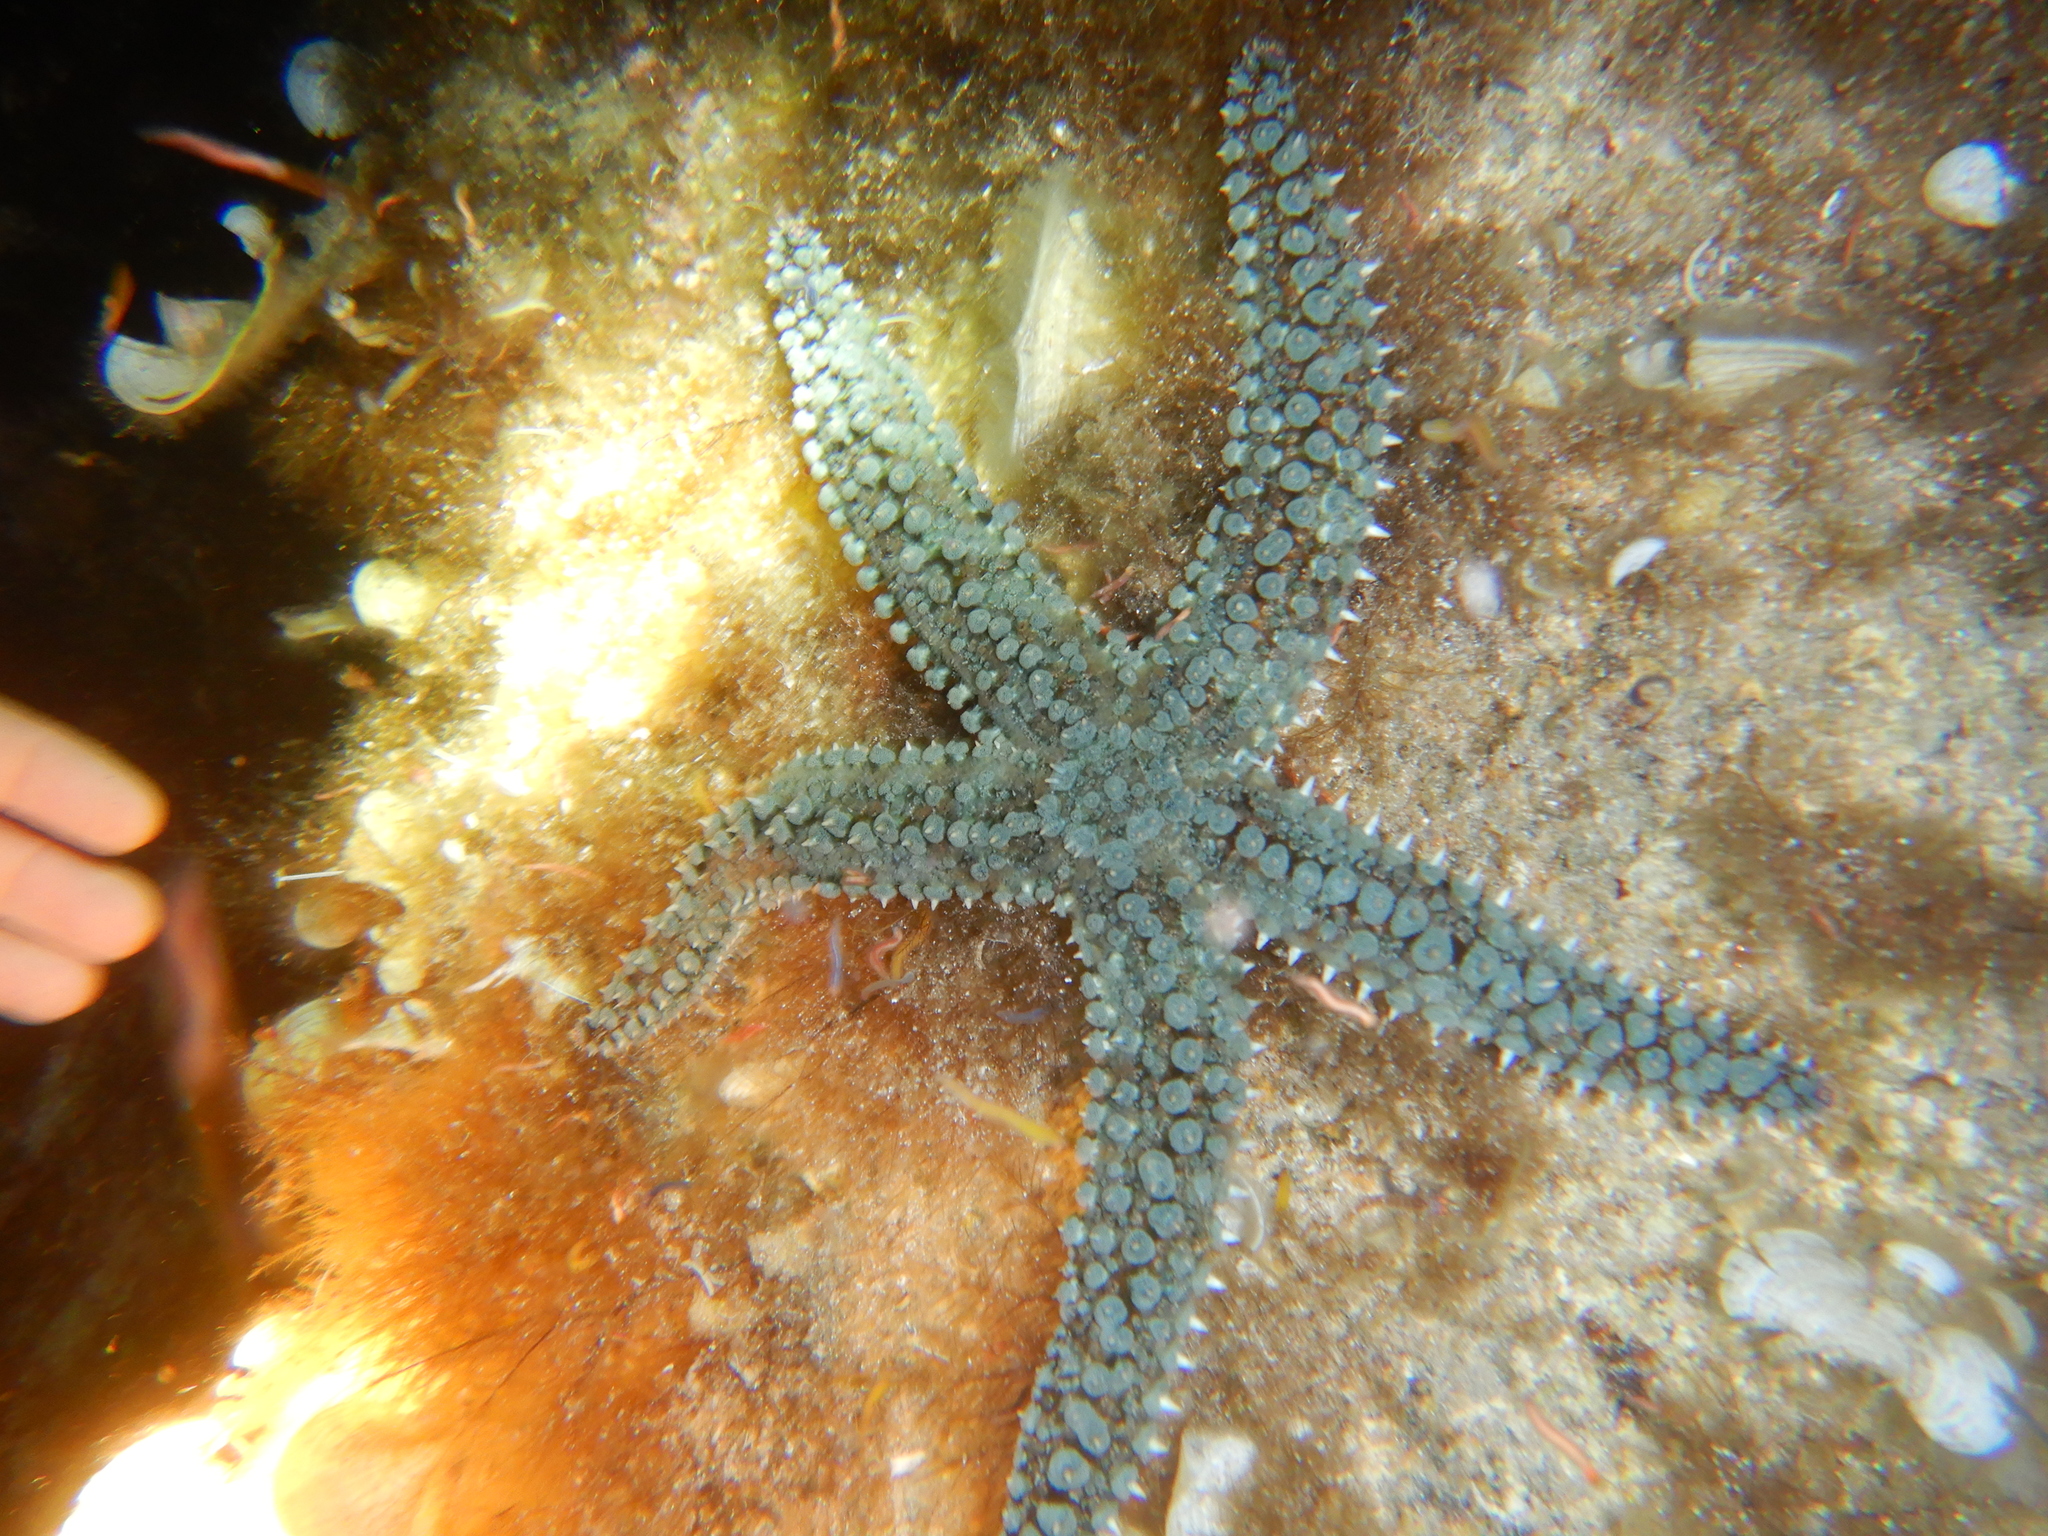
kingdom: Animalia
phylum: Echinodermata
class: Asteroidea
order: Forcipulatida
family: Asteriidae
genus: Marthasterias
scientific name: Marthasterias glacialis
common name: Spiny starfish
